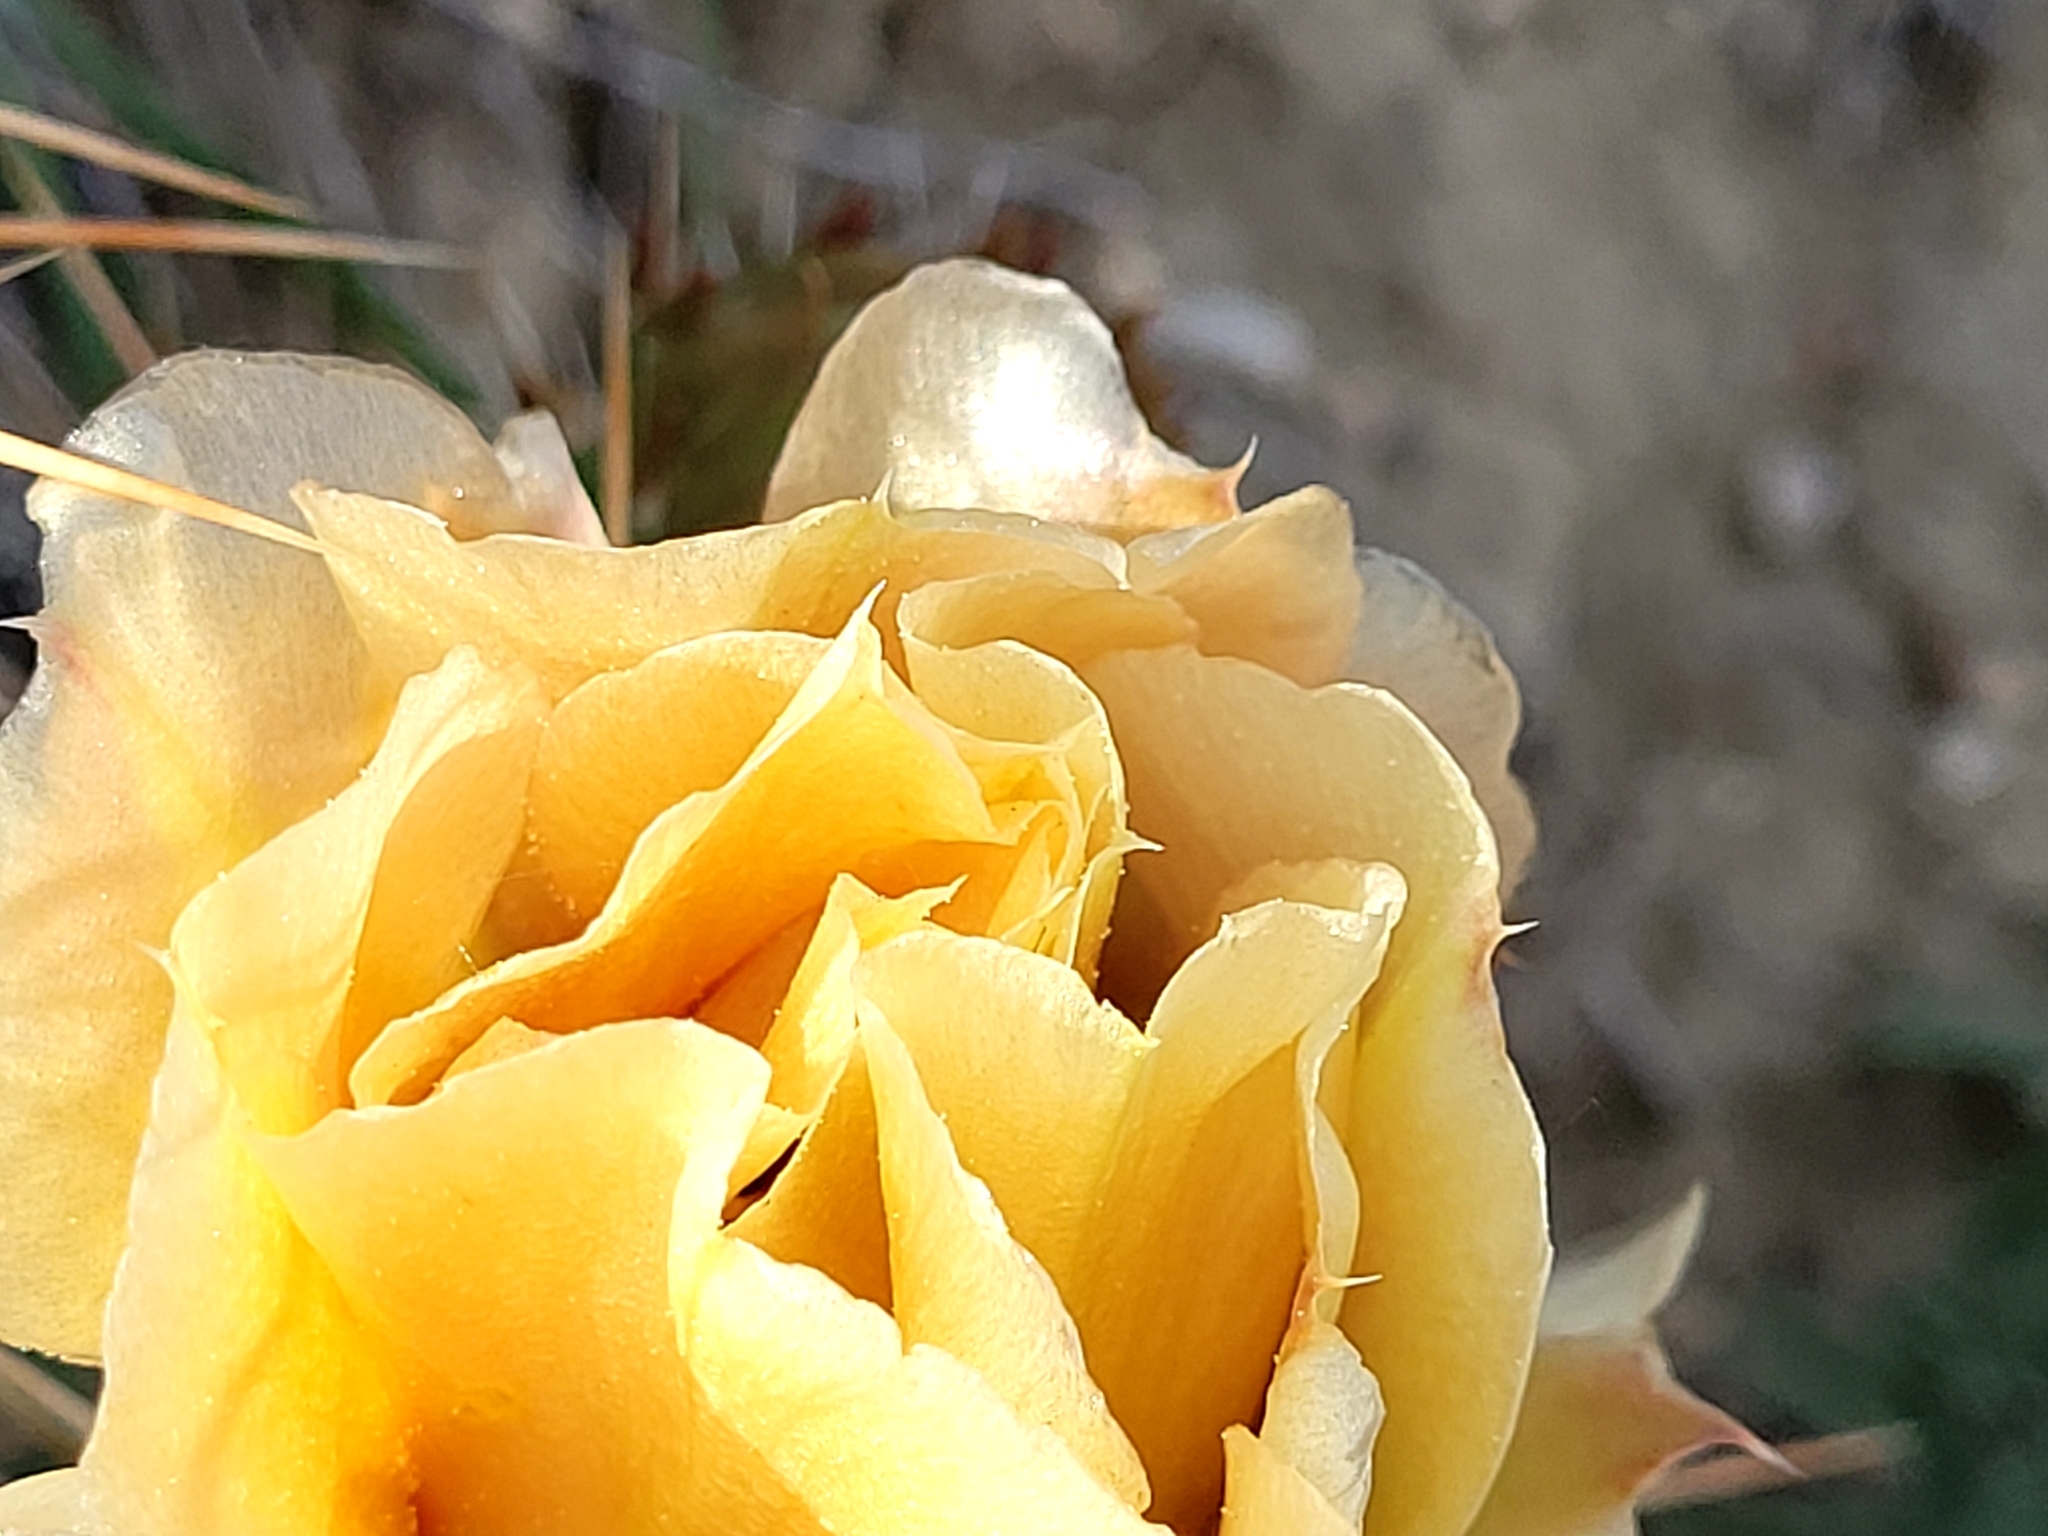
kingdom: Plantae
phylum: Tracheophyta
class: Magnoliopsida
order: Caryophyllales
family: Cactaceae
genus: Opuntia
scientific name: Opuntia polyacantha
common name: Plains prickly-pear
